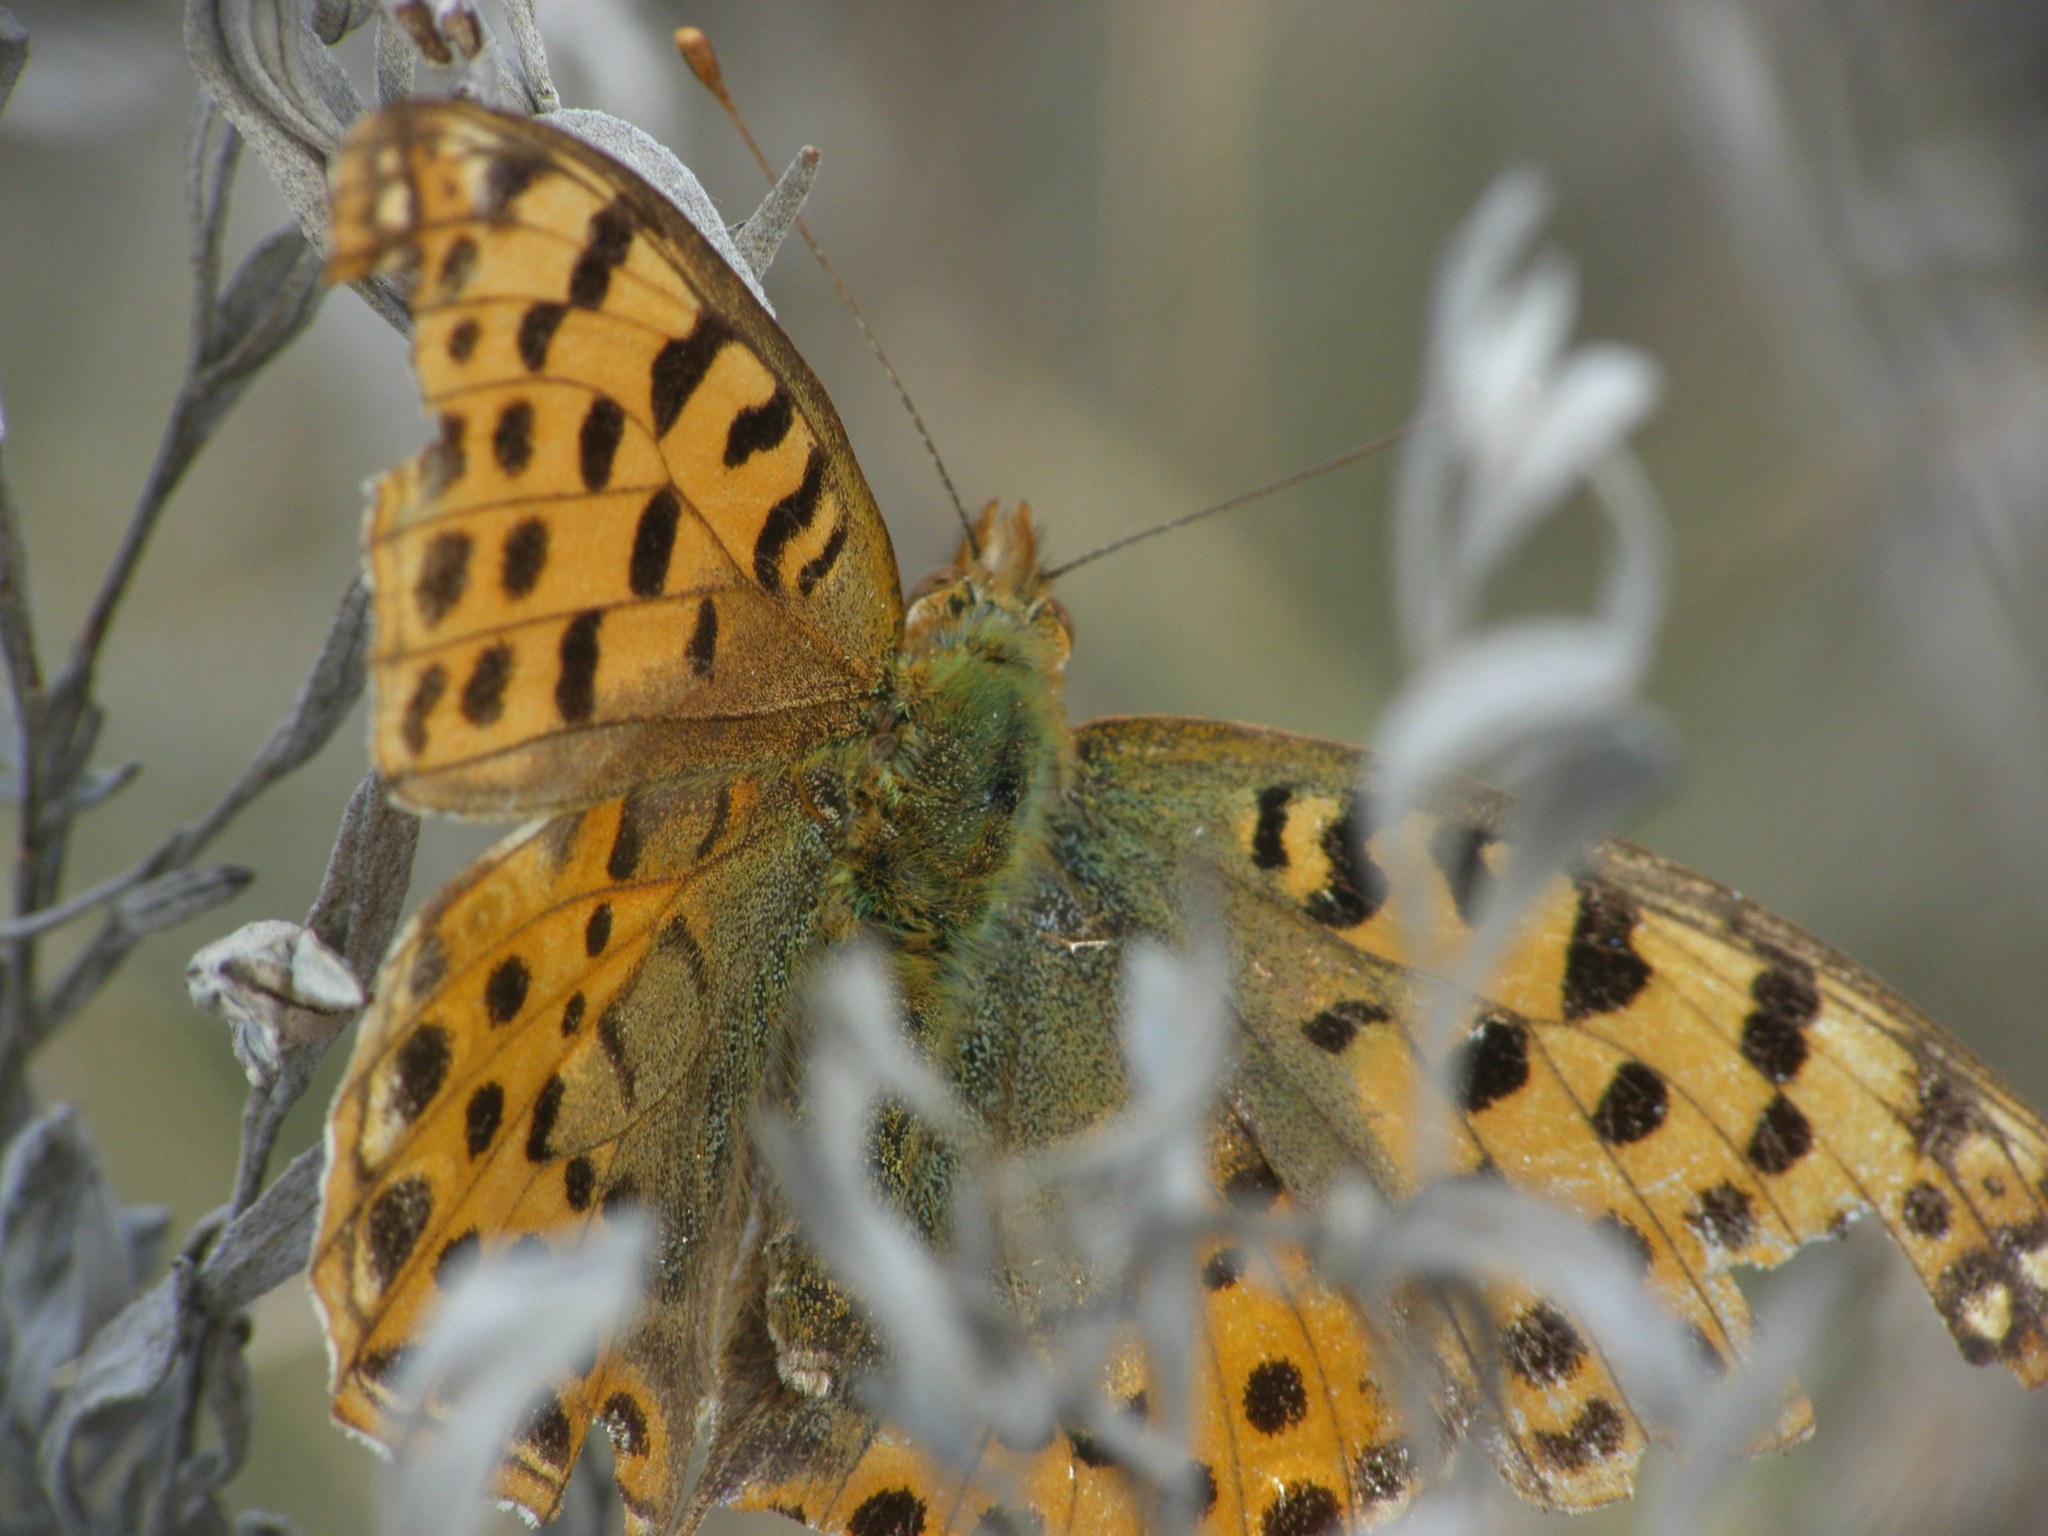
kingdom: Animalia
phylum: Arthropoda
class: Insecta
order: Lepidoptera
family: Nymphalidae
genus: Issoria
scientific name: Issoria lathonia
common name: Queen of spain fritillary
